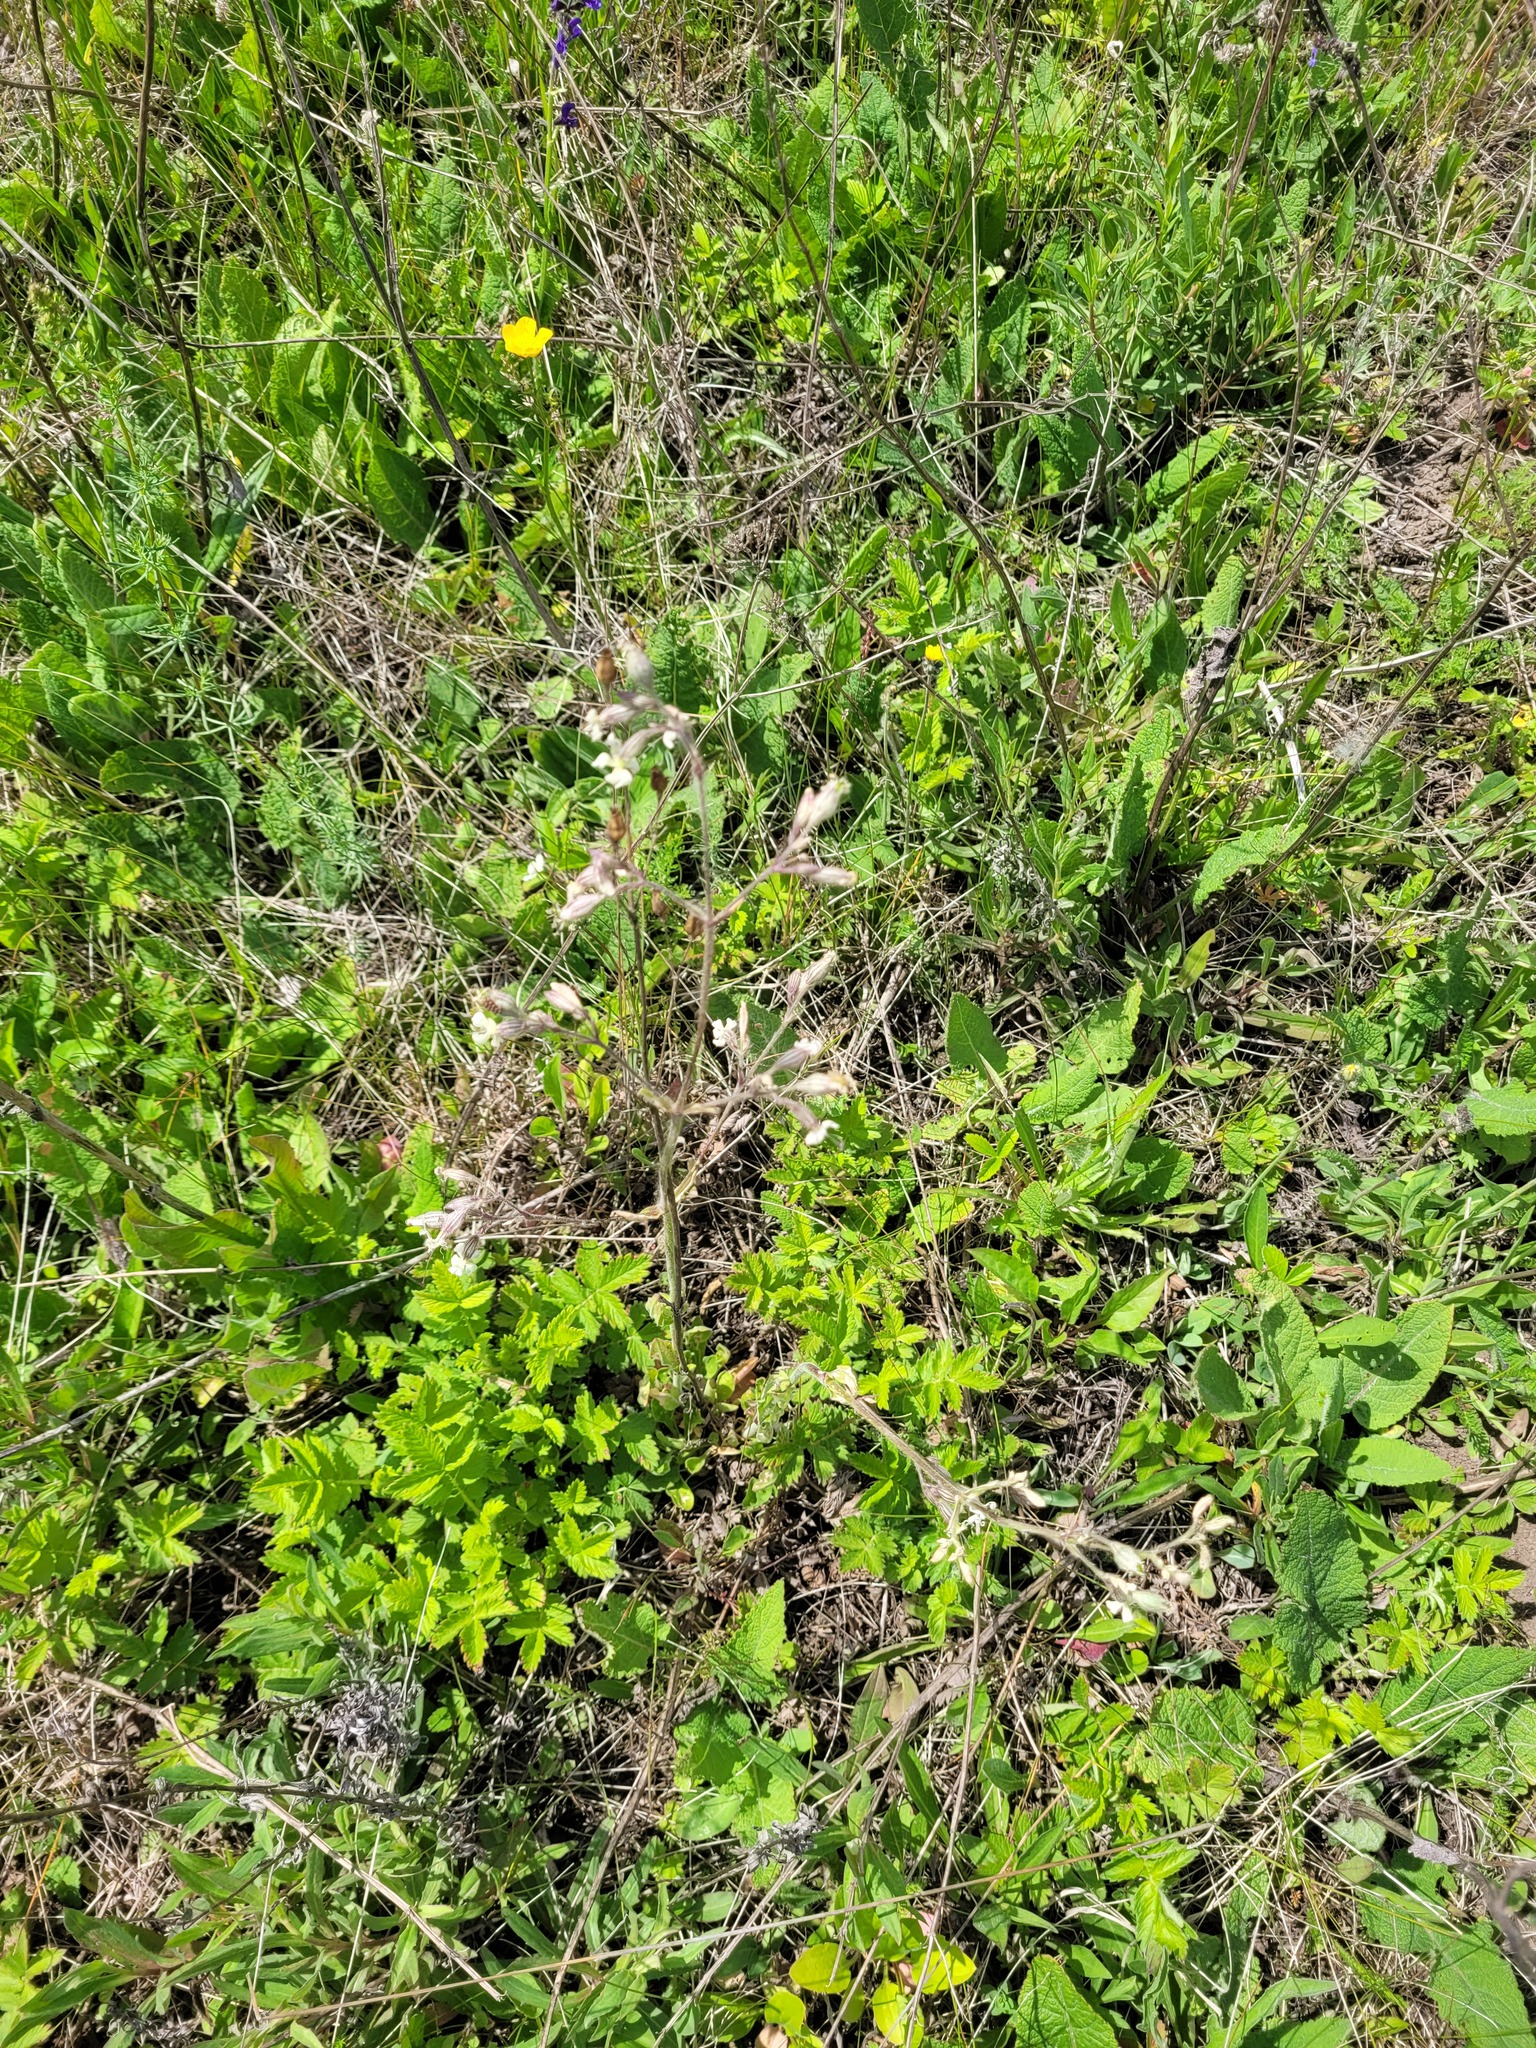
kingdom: Plantae
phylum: Tracheophyta
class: Magnoliopsida
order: Caryophyllales
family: Caryophyllaceae
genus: Silene
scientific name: Silene nutans
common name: Nottingham catchfly
